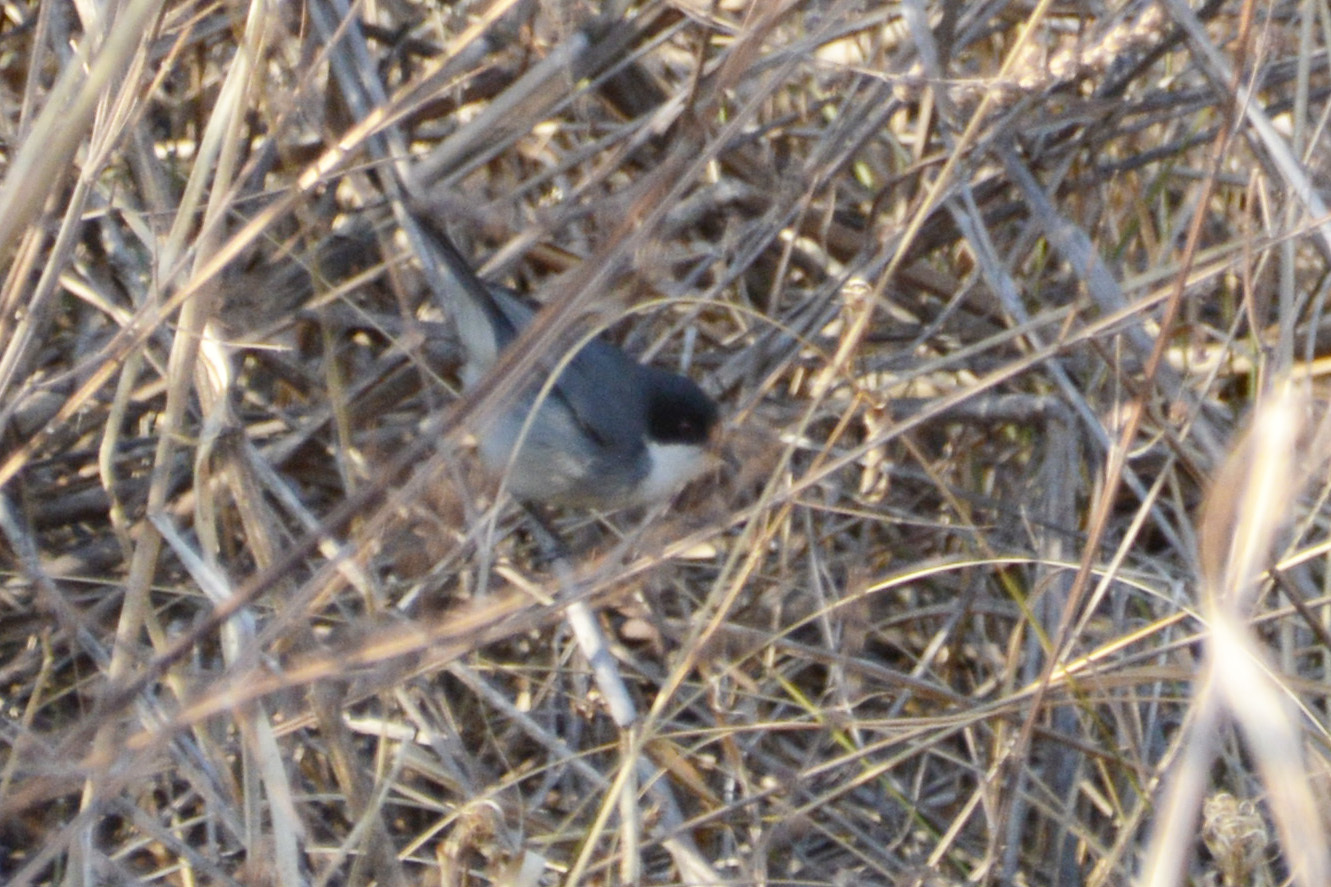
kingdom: Animalia
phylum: Chordata
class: Aves
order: Passeriformes
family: Thraupidae
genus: Microspingus
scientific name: Microspingus melanoleucus
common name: Black-capped warbling-finch
